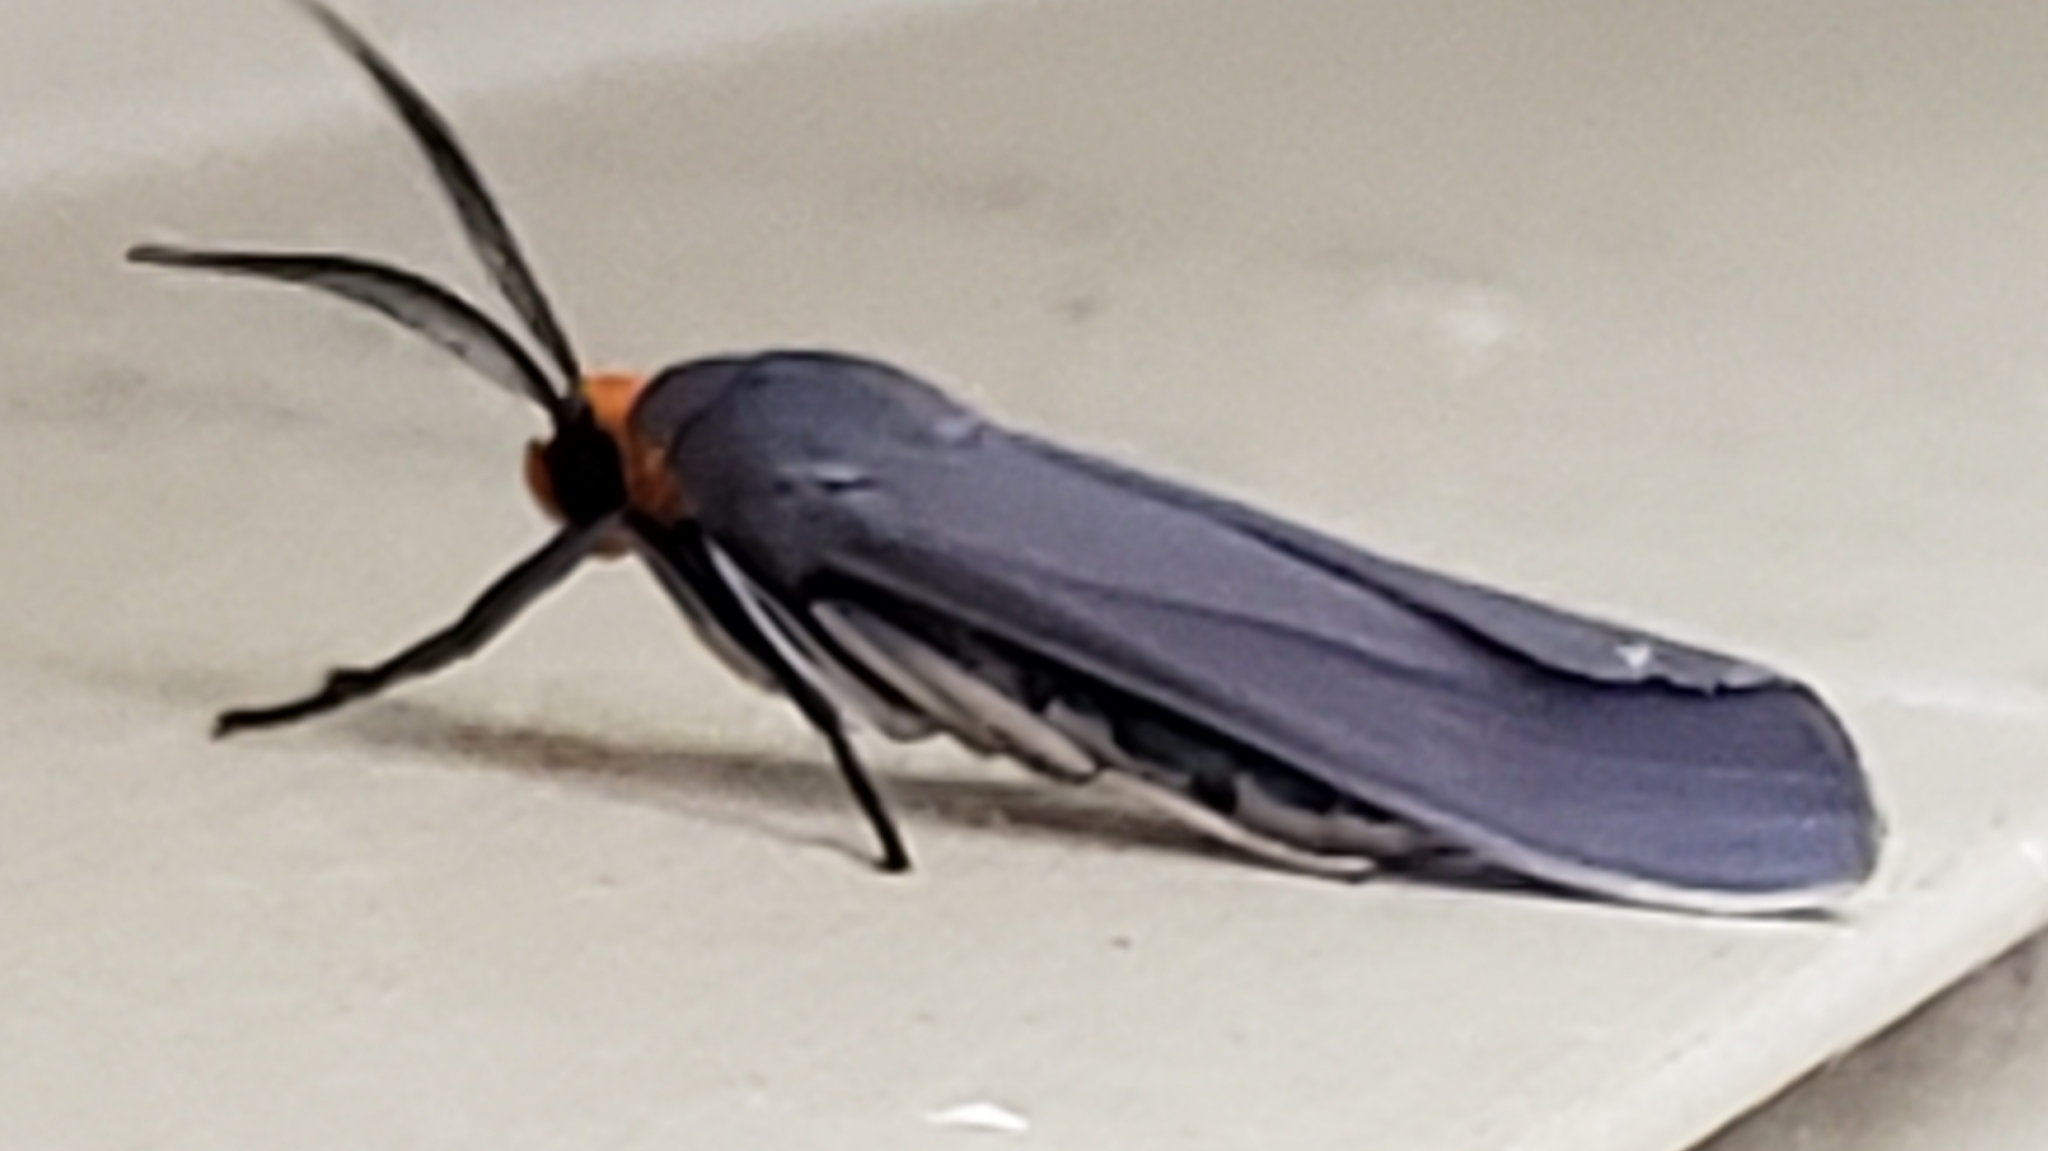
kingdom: Animalia
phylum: Arthropoda
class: Insecta
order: Lepidoptera
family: Erebidae
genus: Lymire
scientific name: Lymire edwardsii
